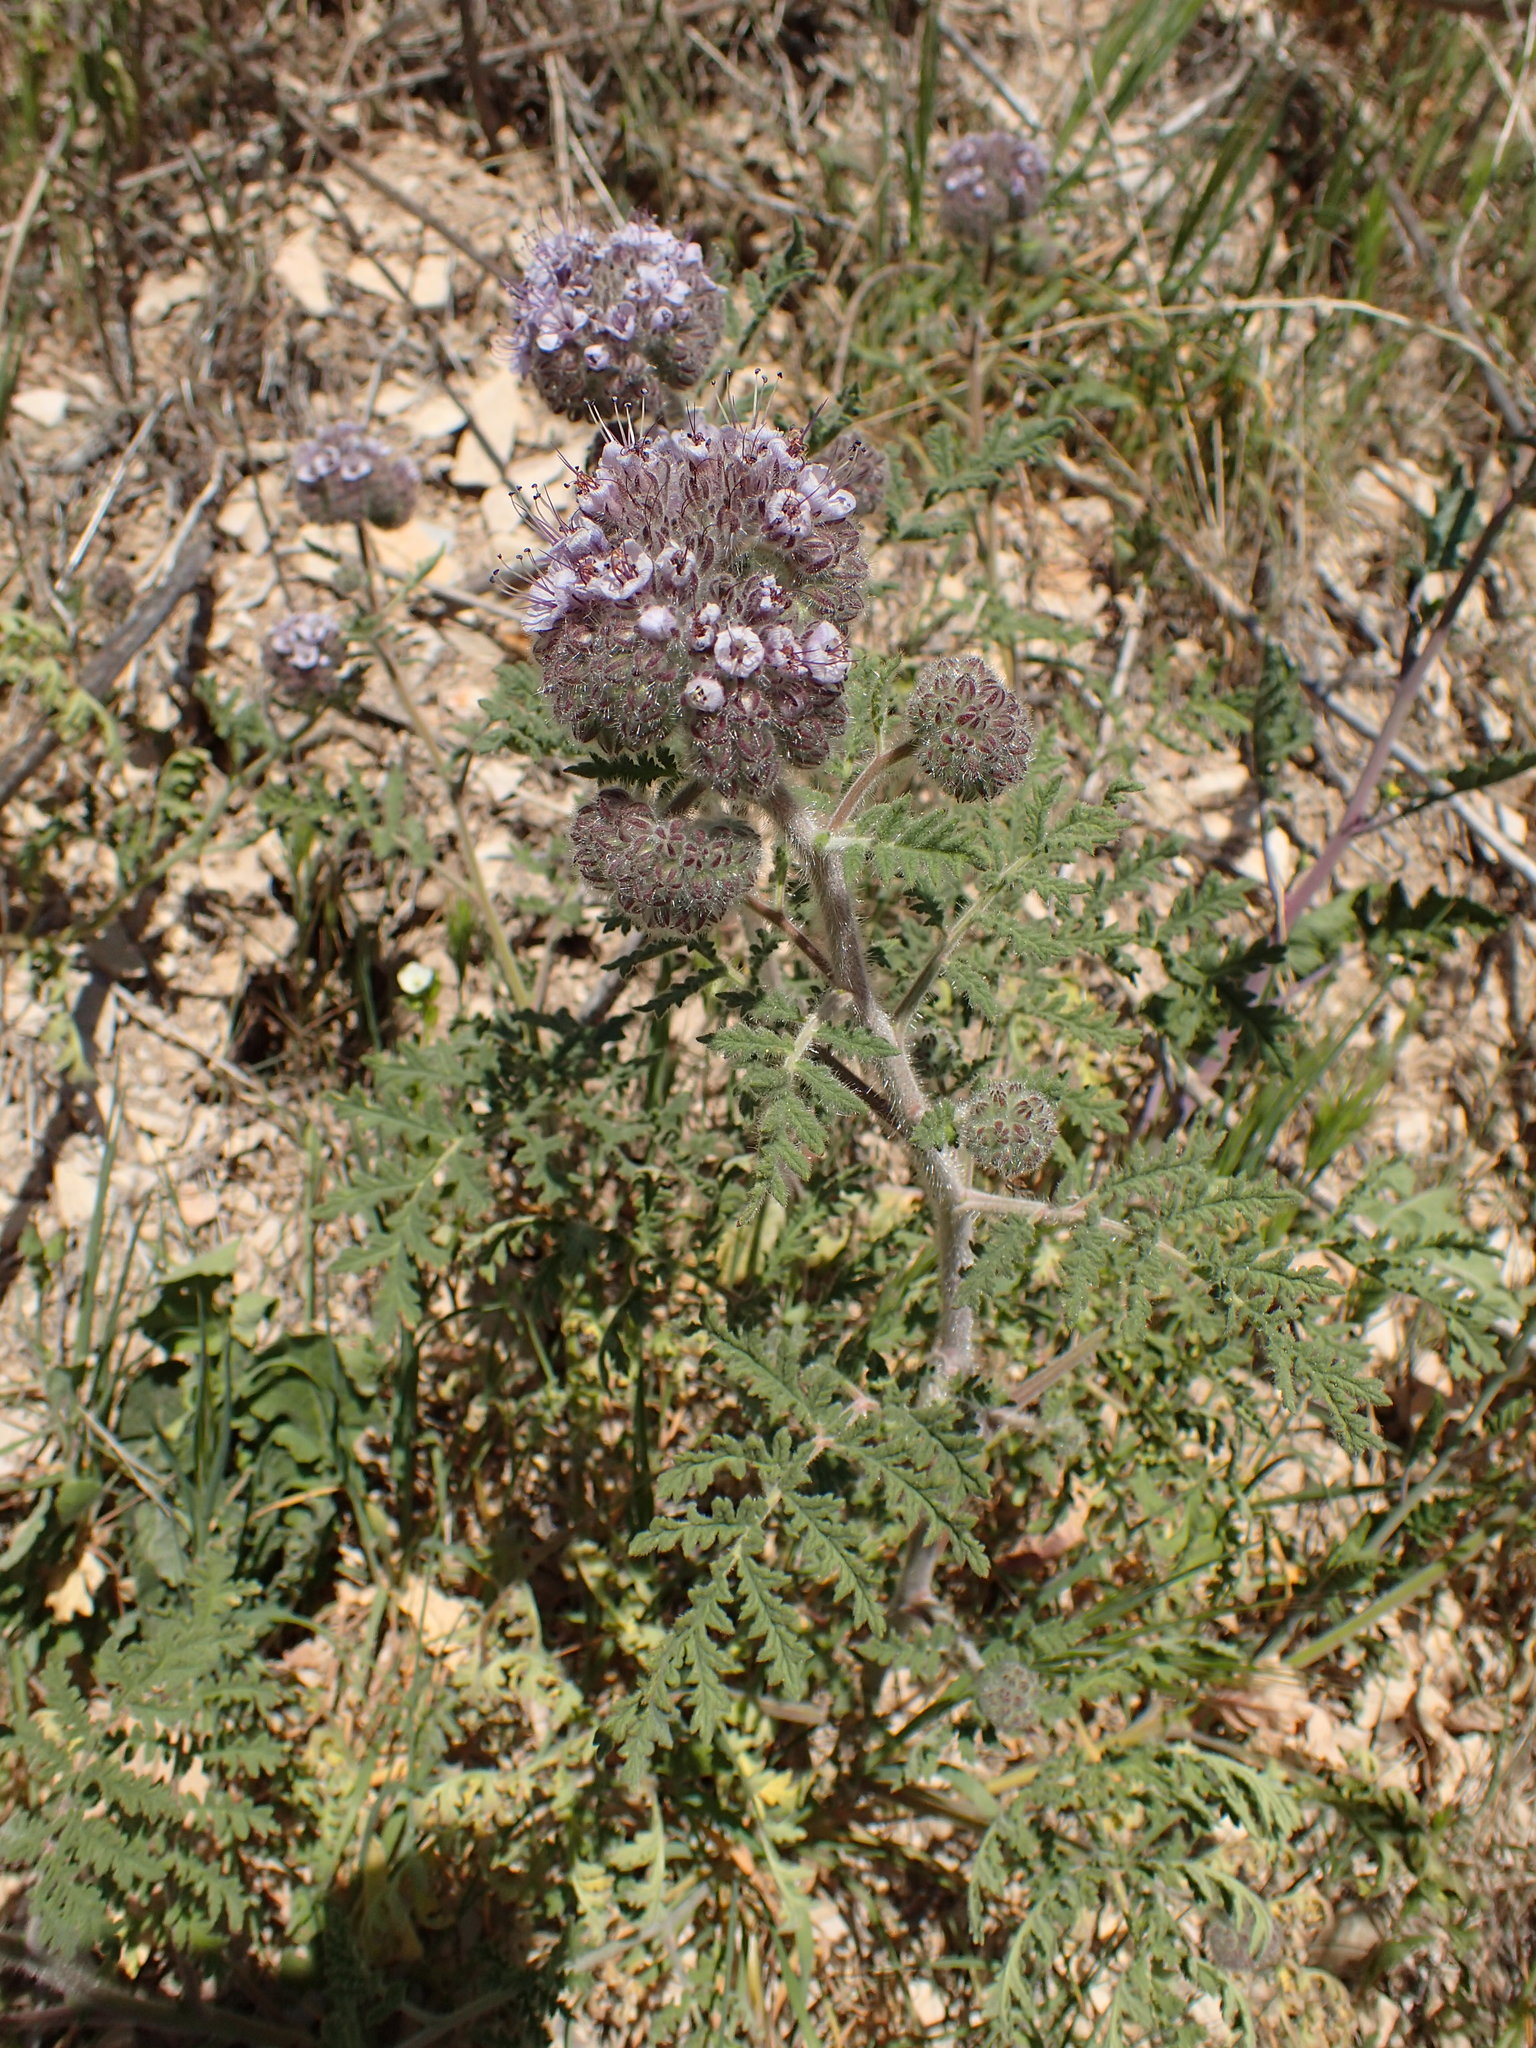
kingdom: Plantae
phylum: Tracheophyta
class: Magnoliopsida
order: Boraginales
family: Hydrophyllaceae
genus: Phacelia
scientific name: Phacelia hubbyi
